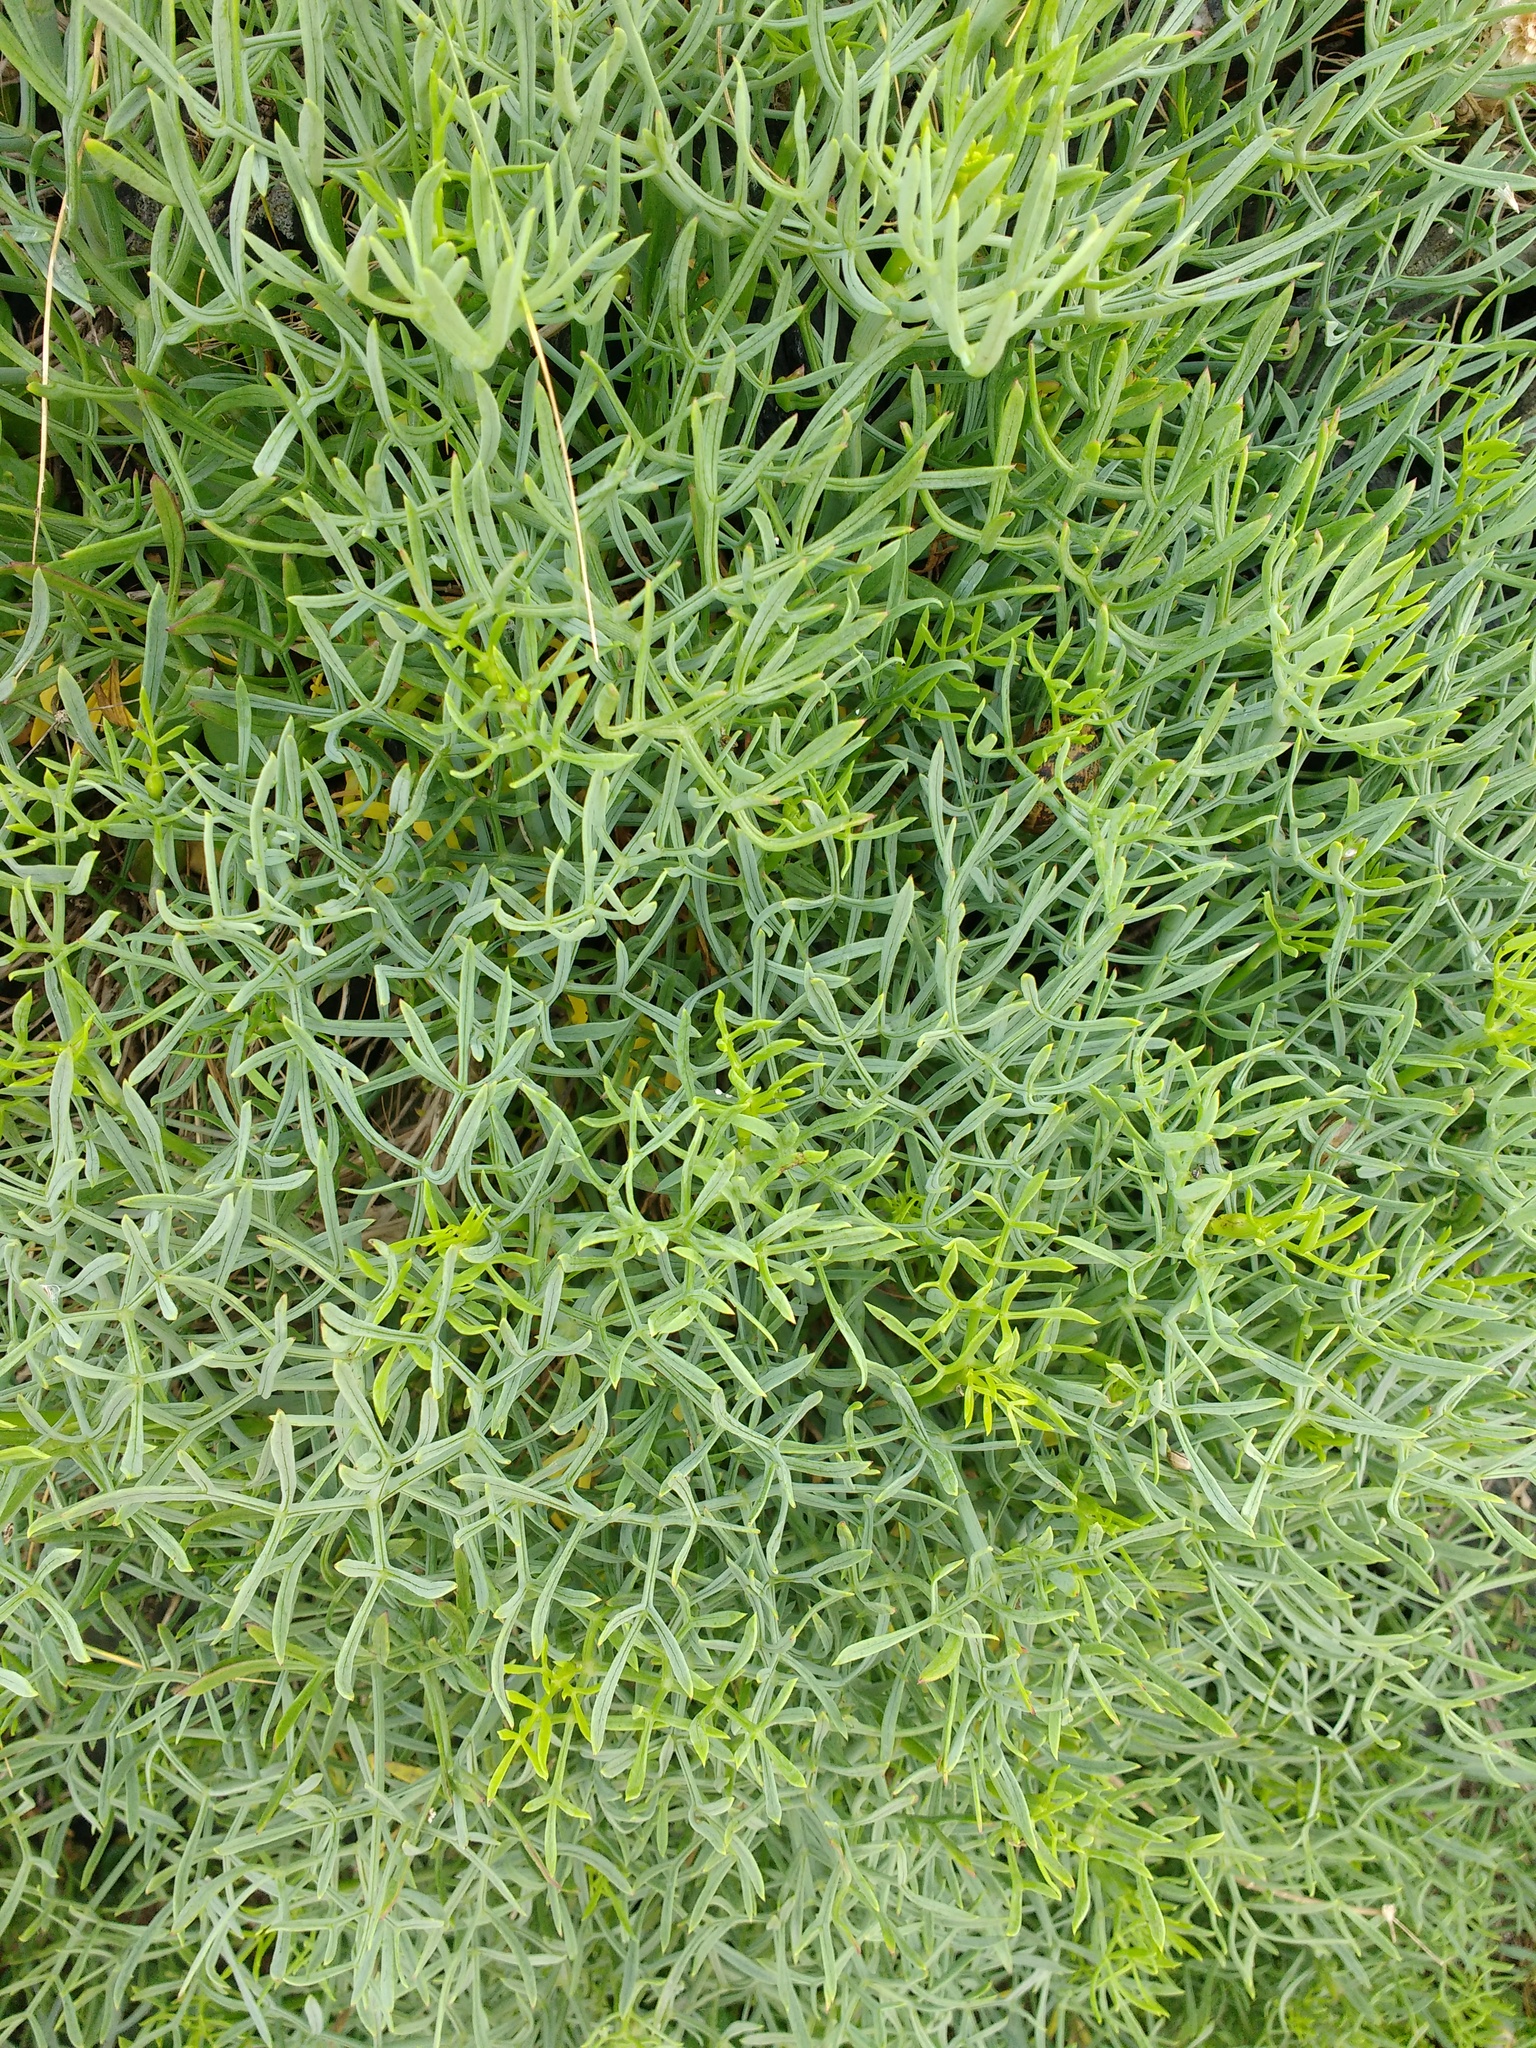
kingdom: Plantae
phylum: Tracheophyta
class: Magnoliopsida
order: Apiales
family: Apiaceae
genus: Crithmum
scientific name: Crithmum maritimum
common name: Rock samphire
